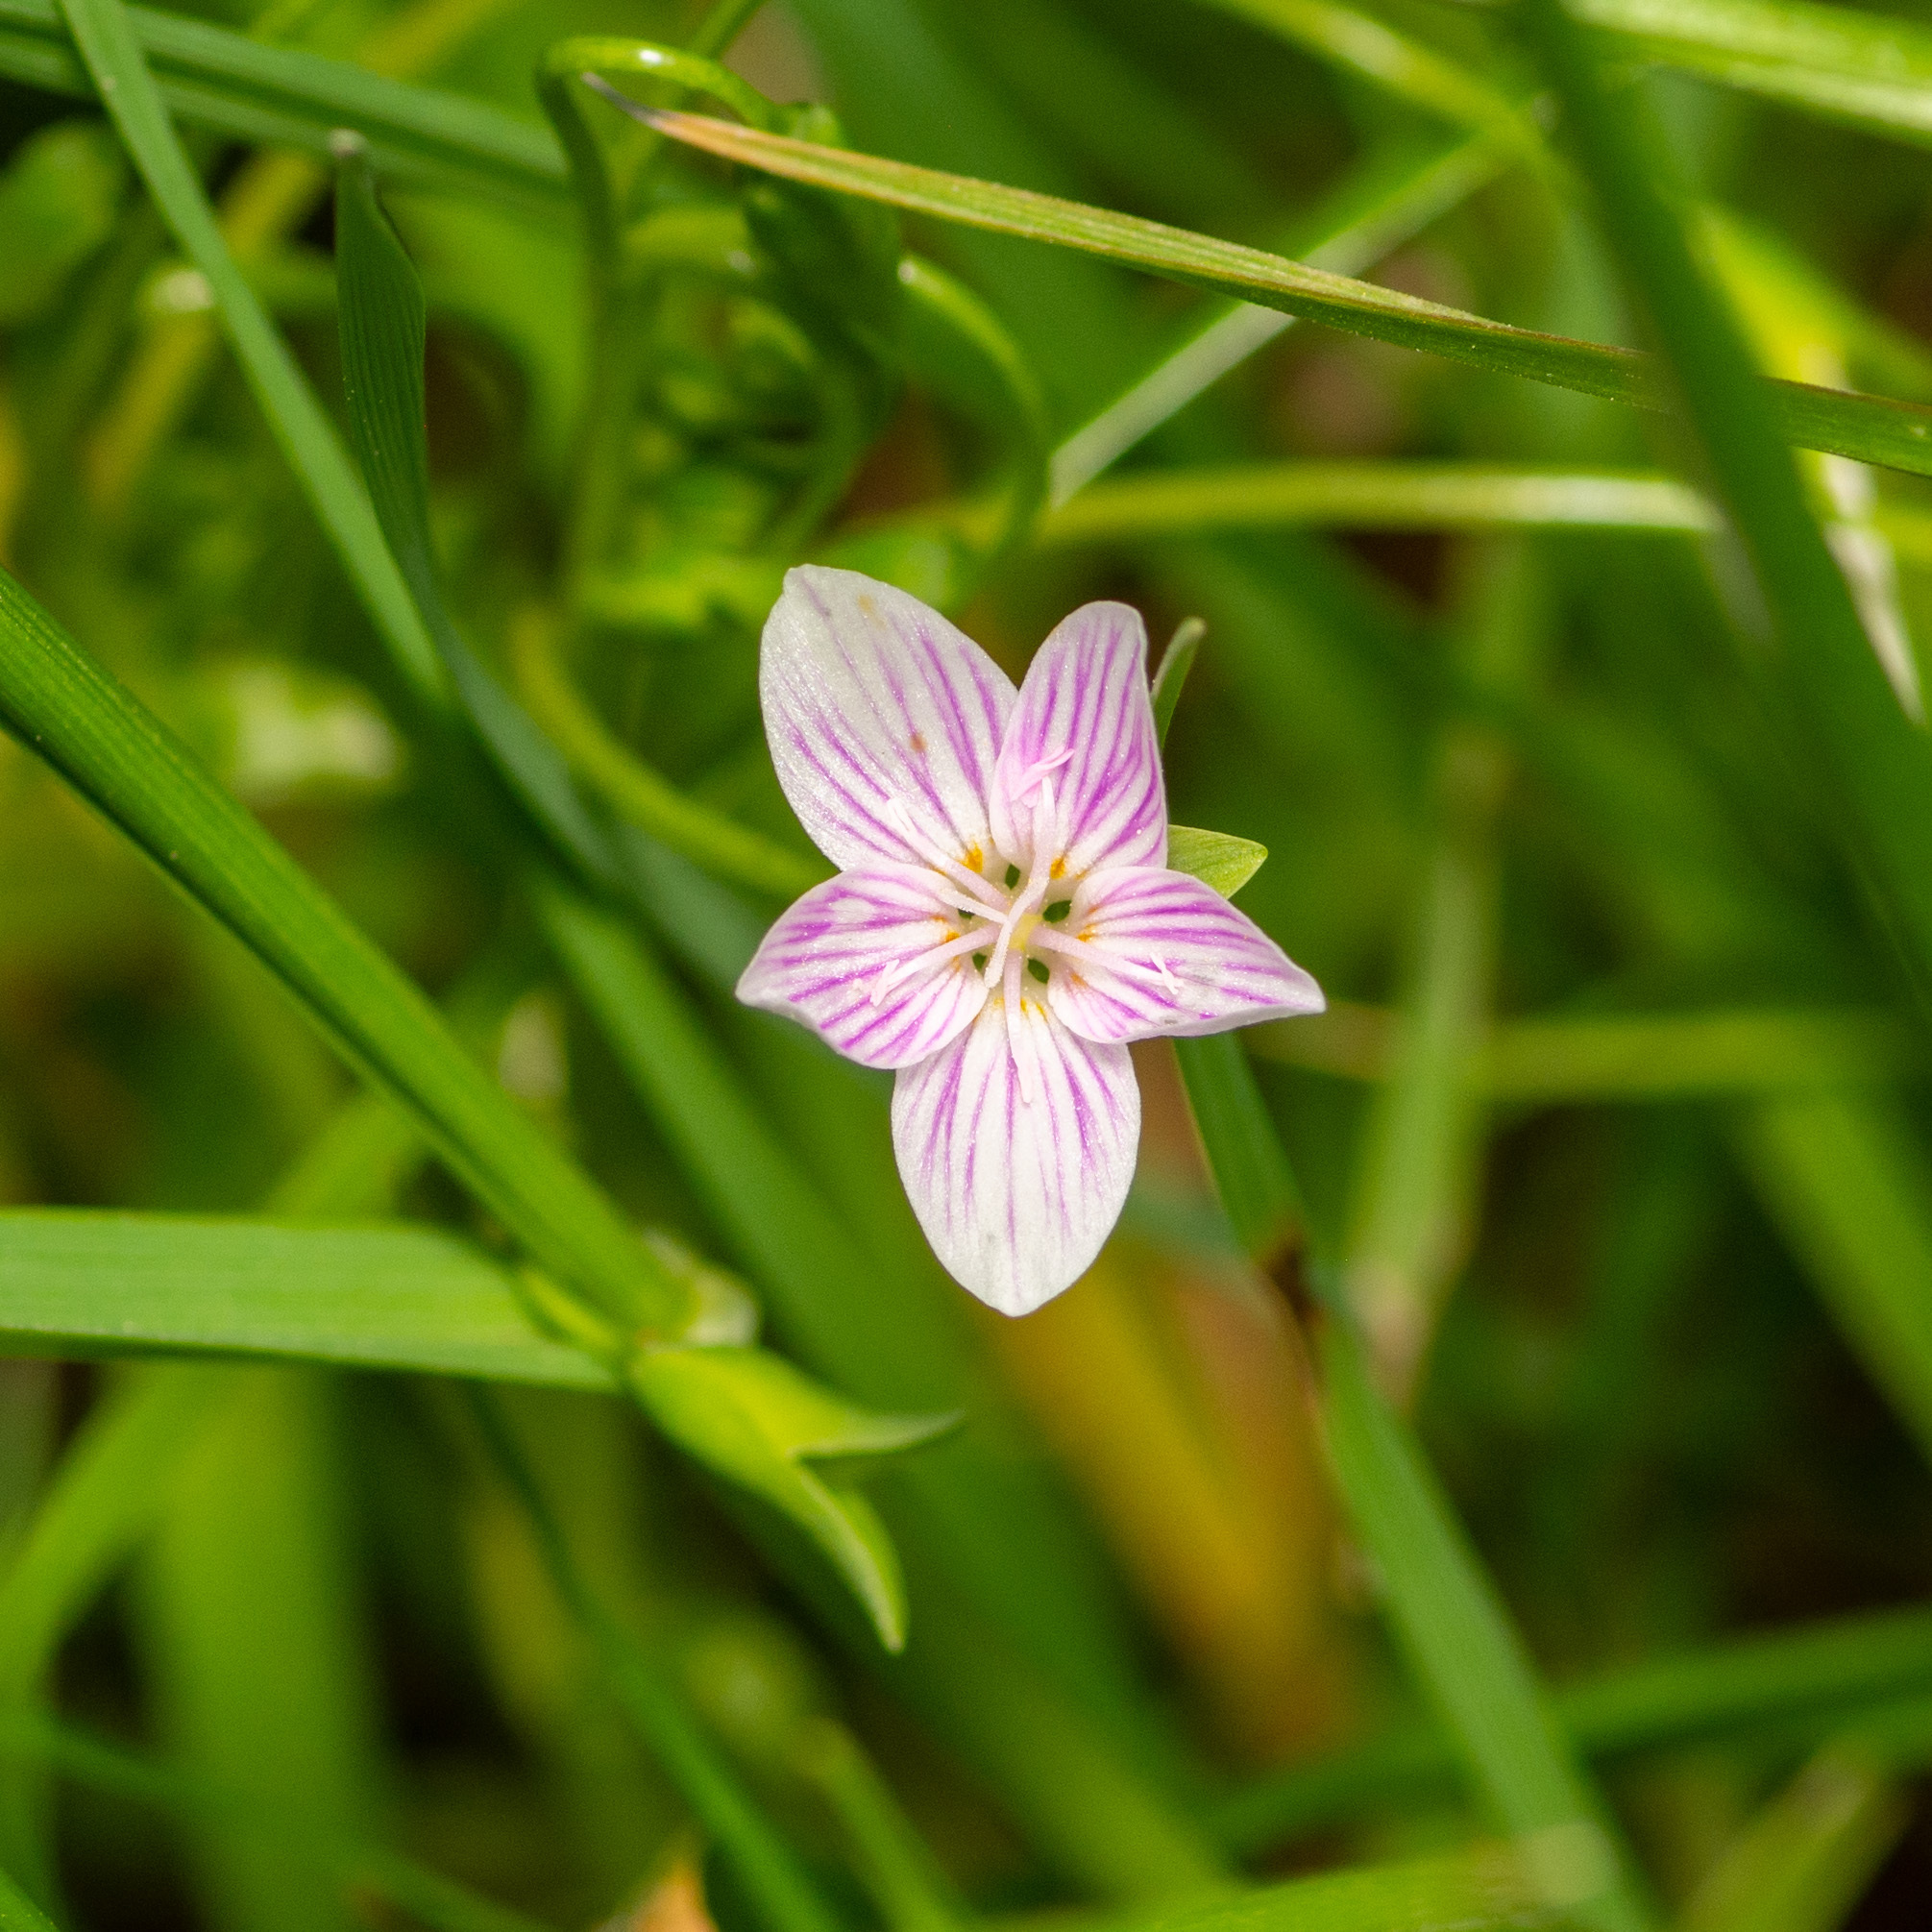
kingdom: Plantae
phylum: Tracheophyta
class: Magnoliopsida
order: Caryophyllales
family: Montiaceae
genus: Claytonia
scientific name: Claytonia virginica
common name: Virginia springbeauty
